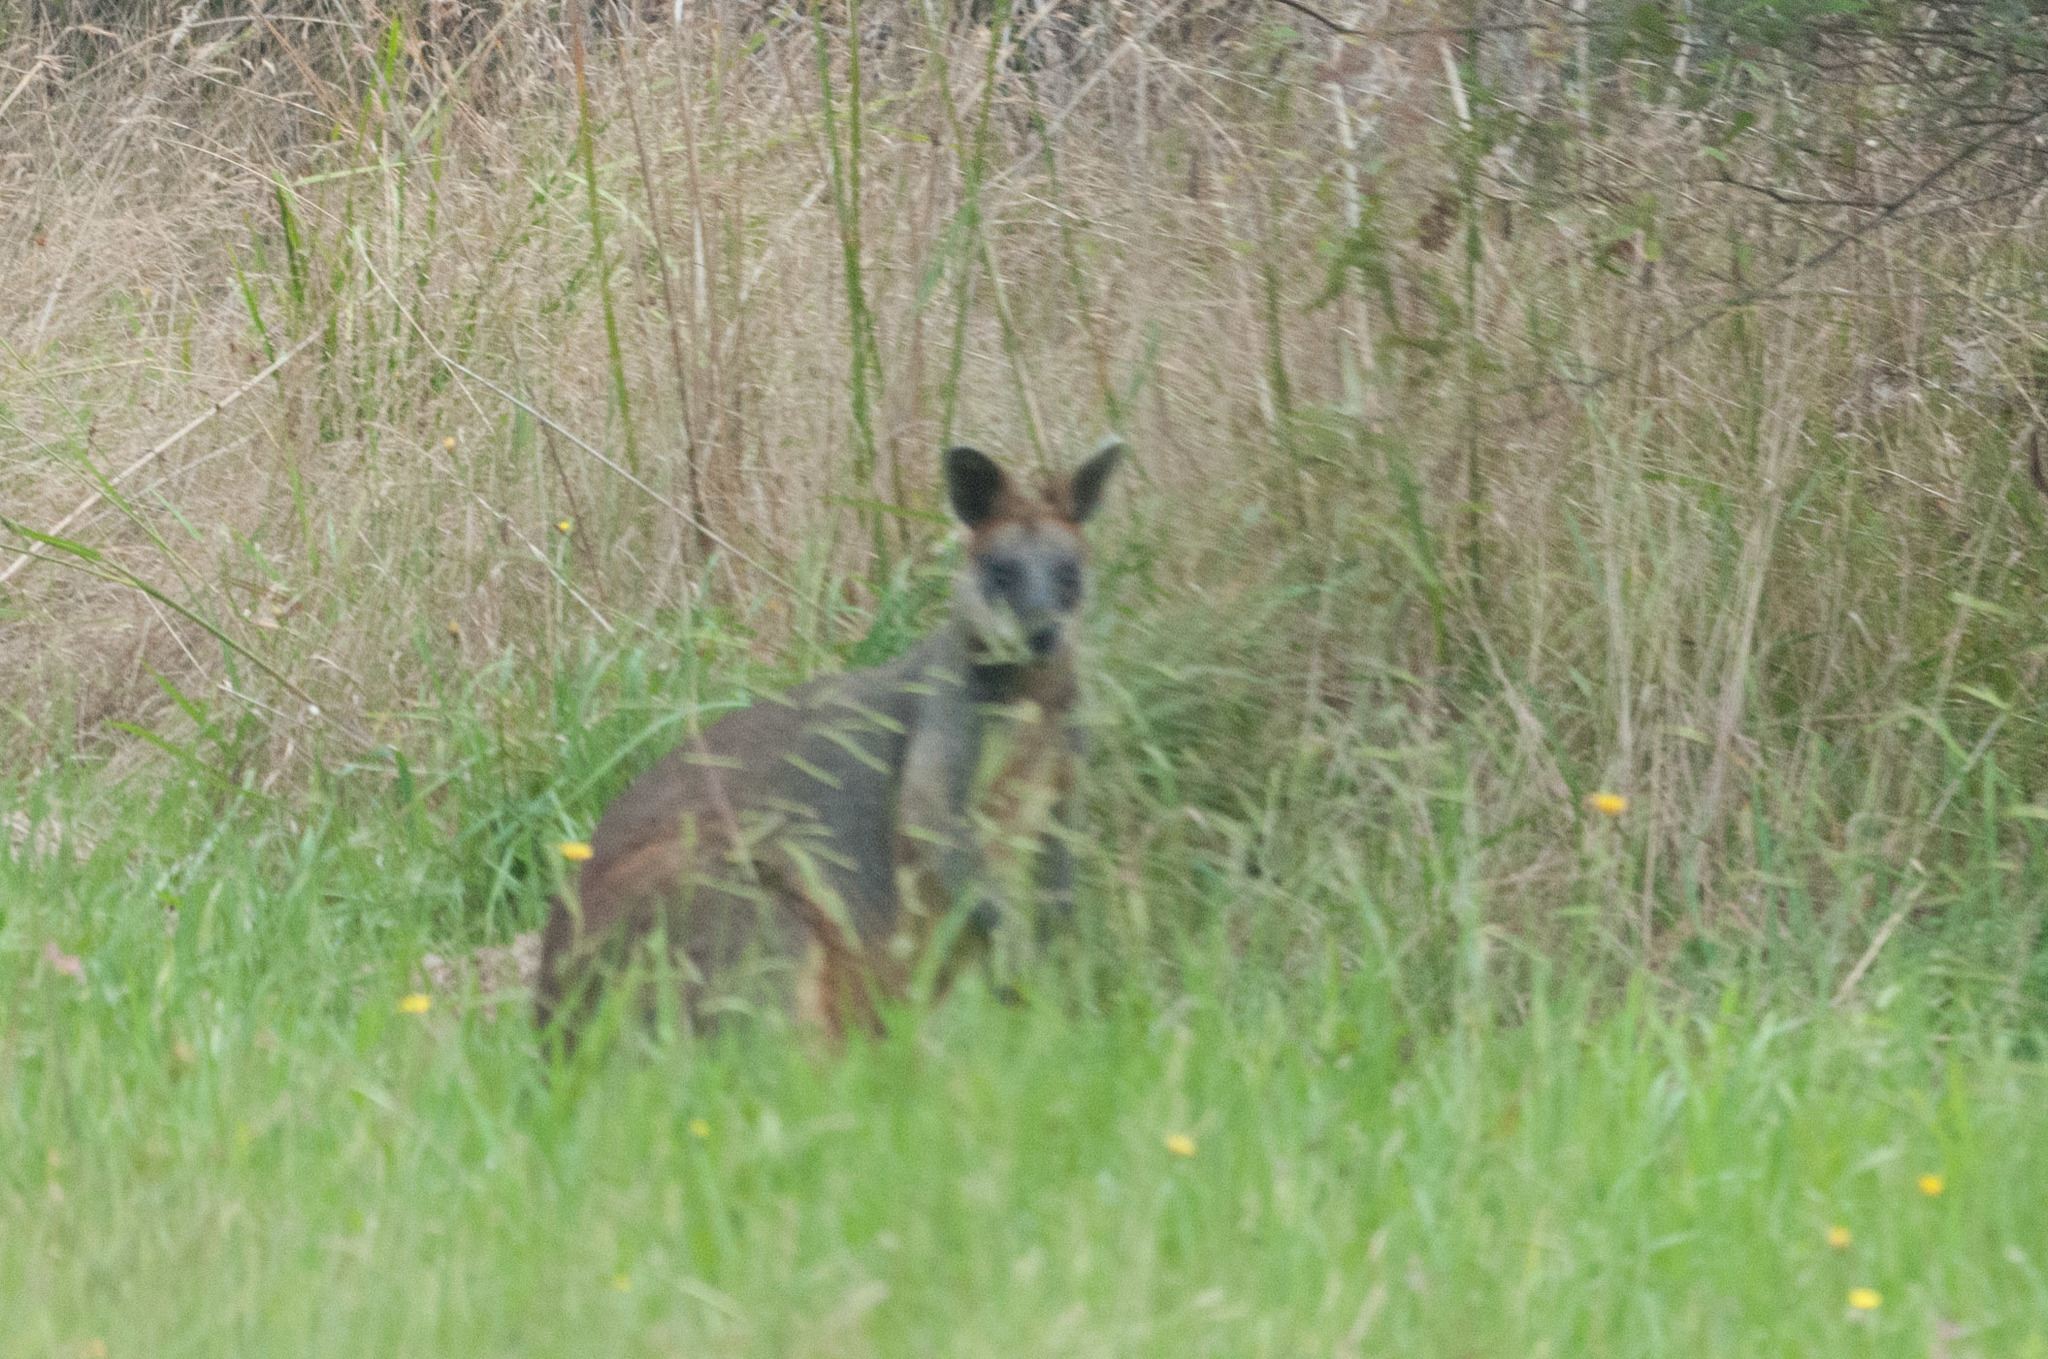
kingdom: Animalia
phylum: Chordata
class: Mammalia
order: Diprotodontia
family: Macropodidae
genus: Wallabia
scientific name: Wallabia bicolor
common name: Swamp wallaby
